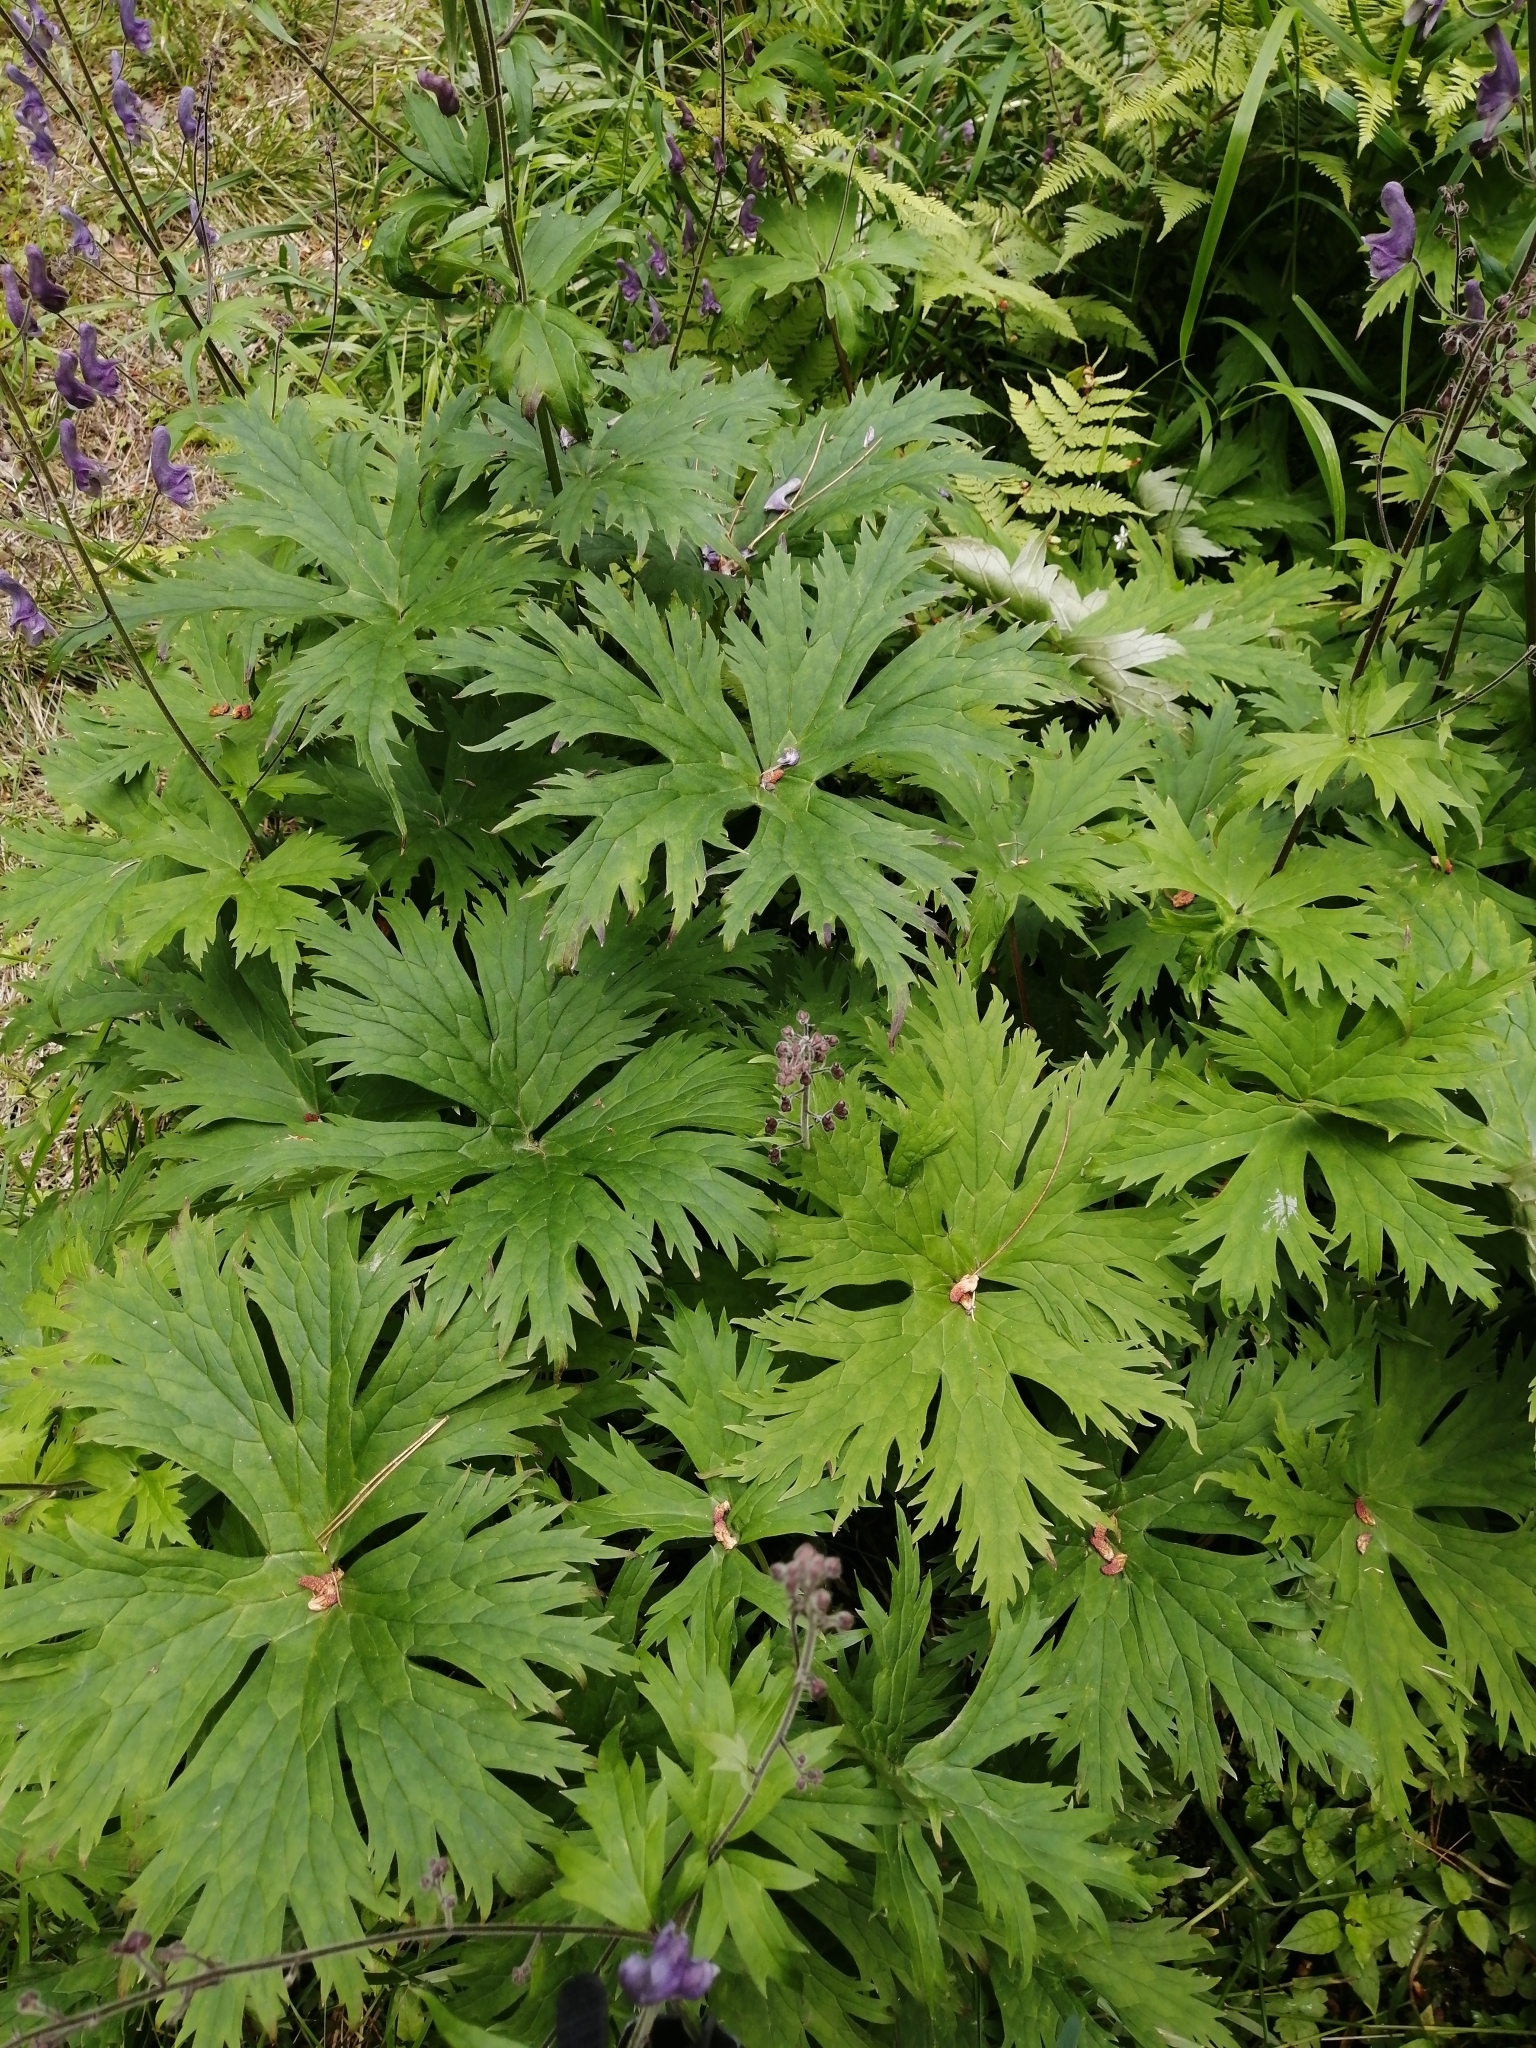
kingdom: Plantae
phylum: Tracheophyta
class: Magnoliopsida
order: Ranunculales
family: Ranunculaceae
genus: Aconitum
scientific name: Aconitum septentrionale
